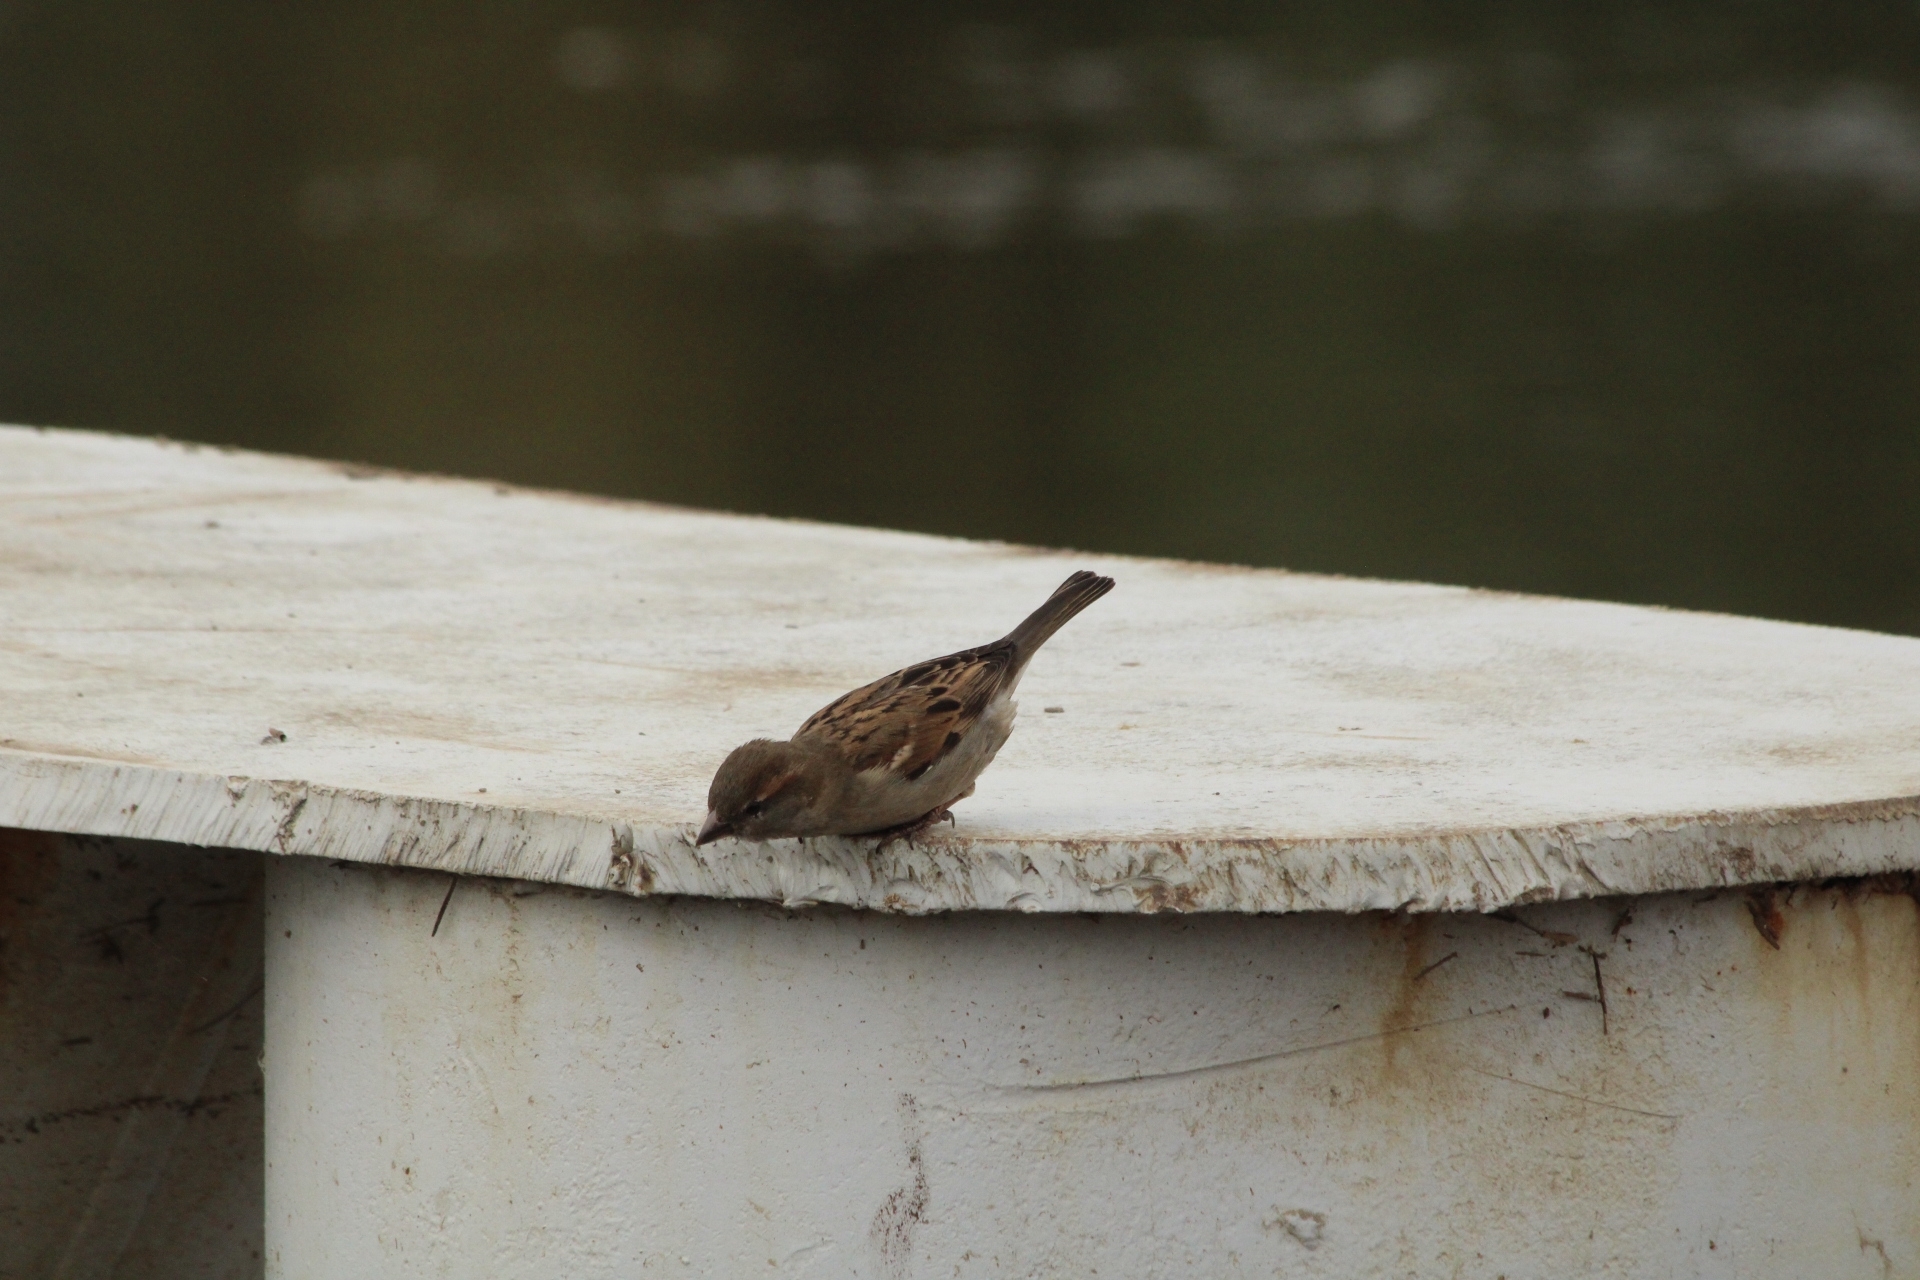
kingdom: Animalia
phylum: Chordata
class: Aves
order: Passeriformes
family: Passeridae
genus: Passer
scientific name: Passer domesticus
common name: House sparrow
